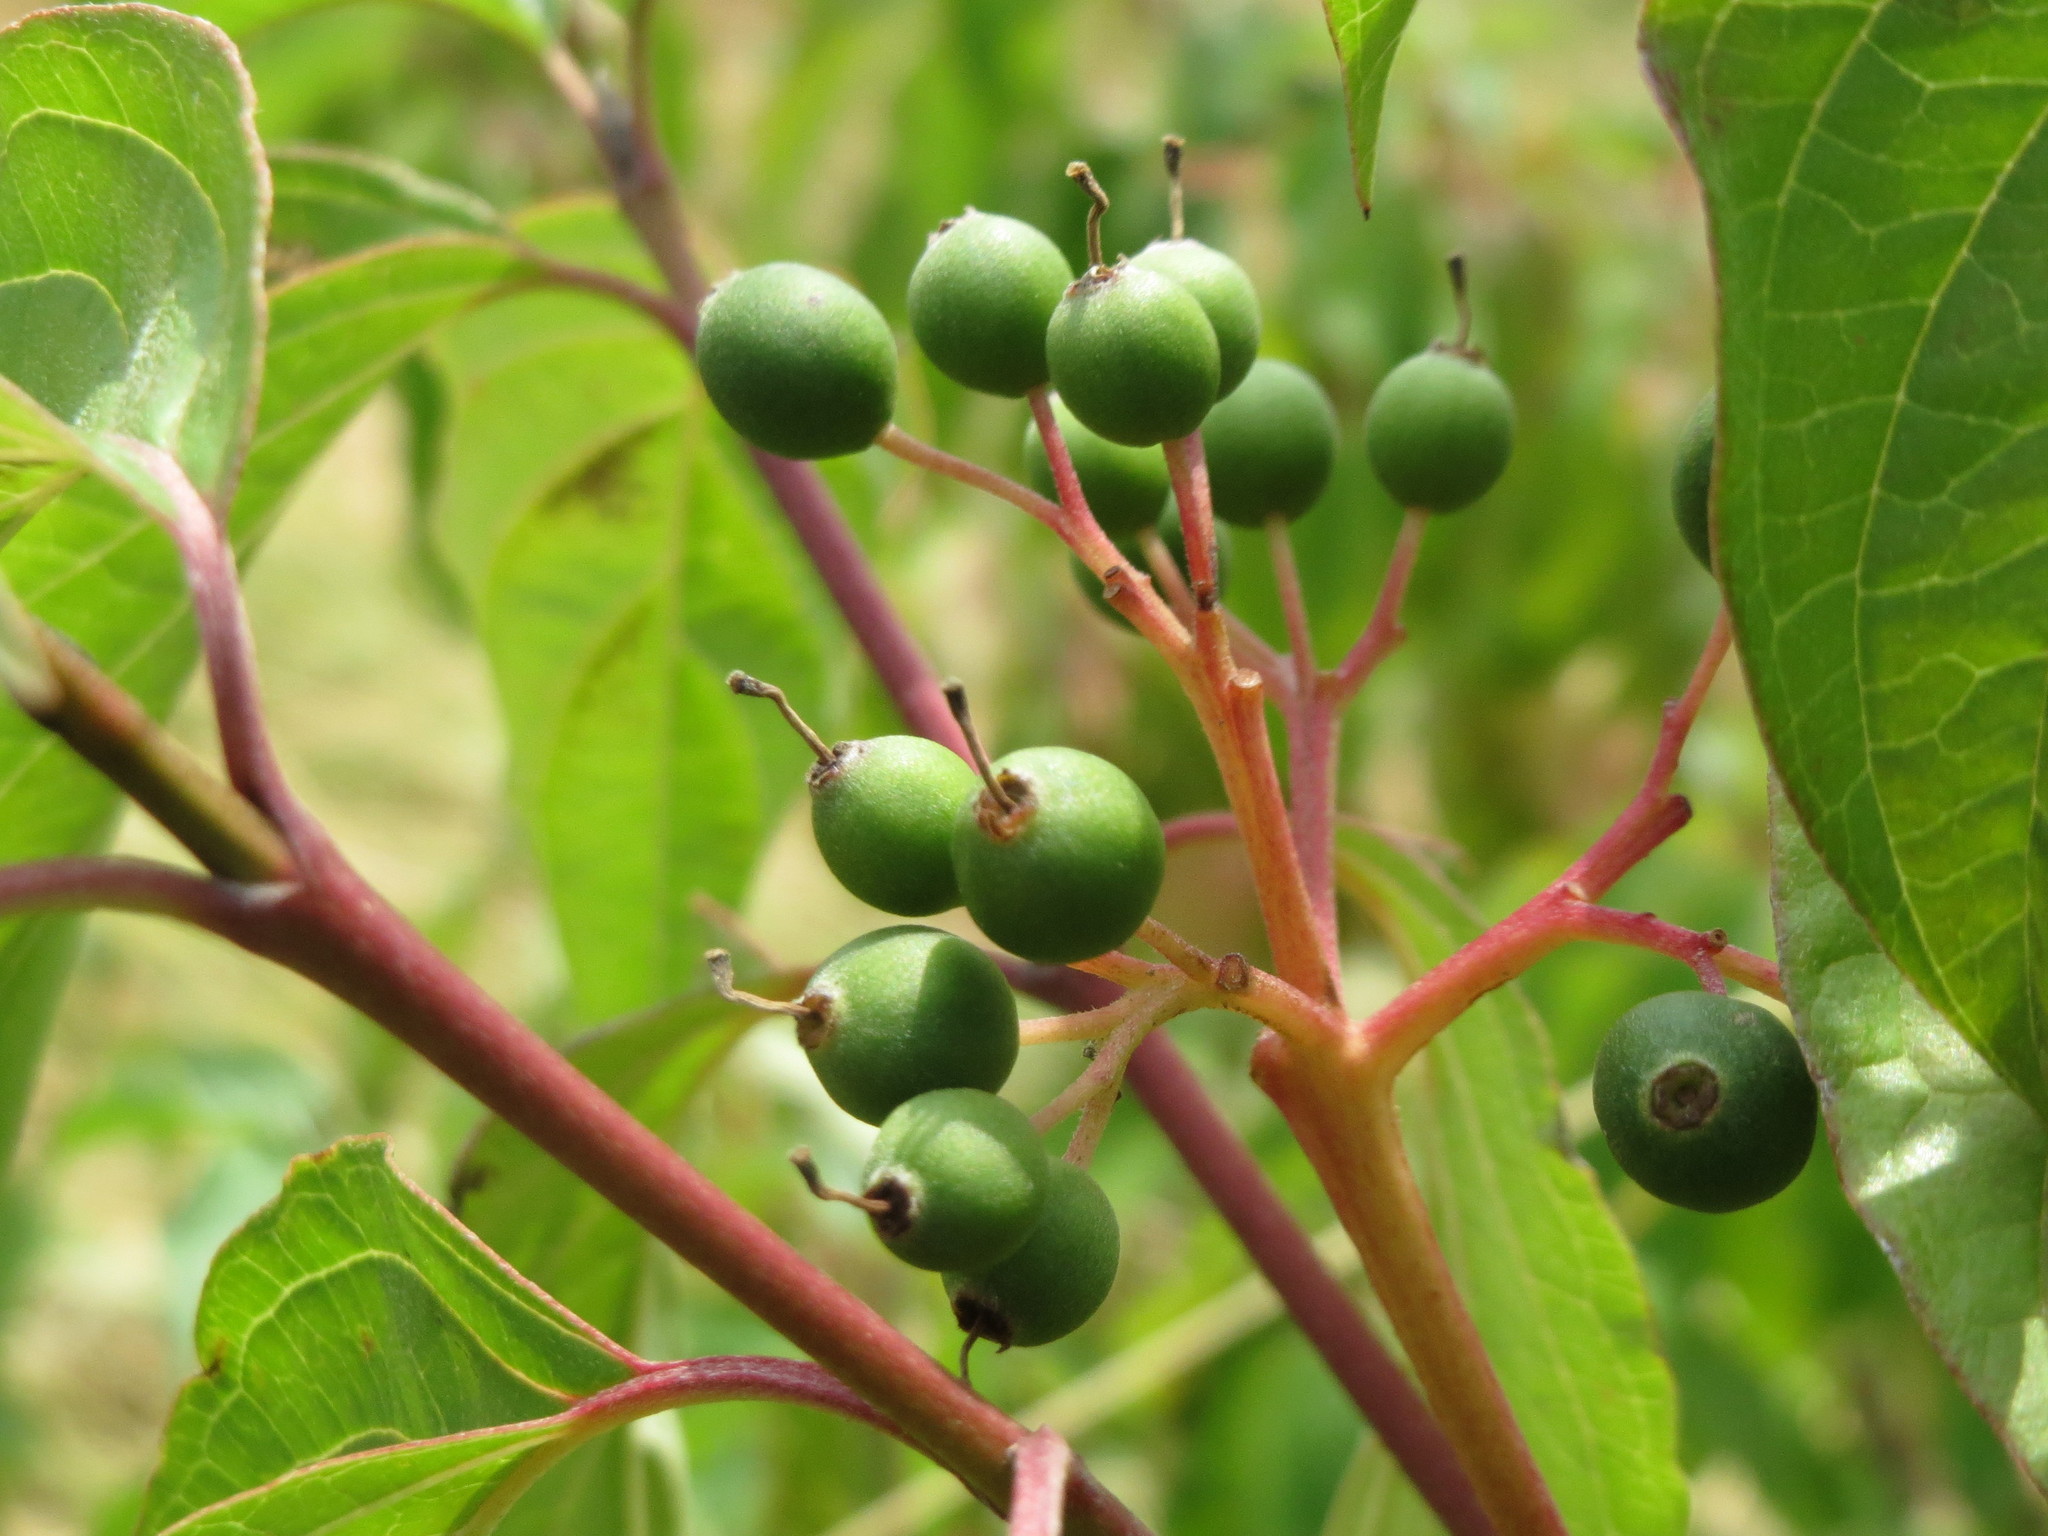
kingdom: Plantae
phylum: Tracheophyta
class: Magnoliopsida
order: Cornales
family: Cornaceae
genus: Cornus
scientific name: Cornus sanguinea
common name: Dogwood
